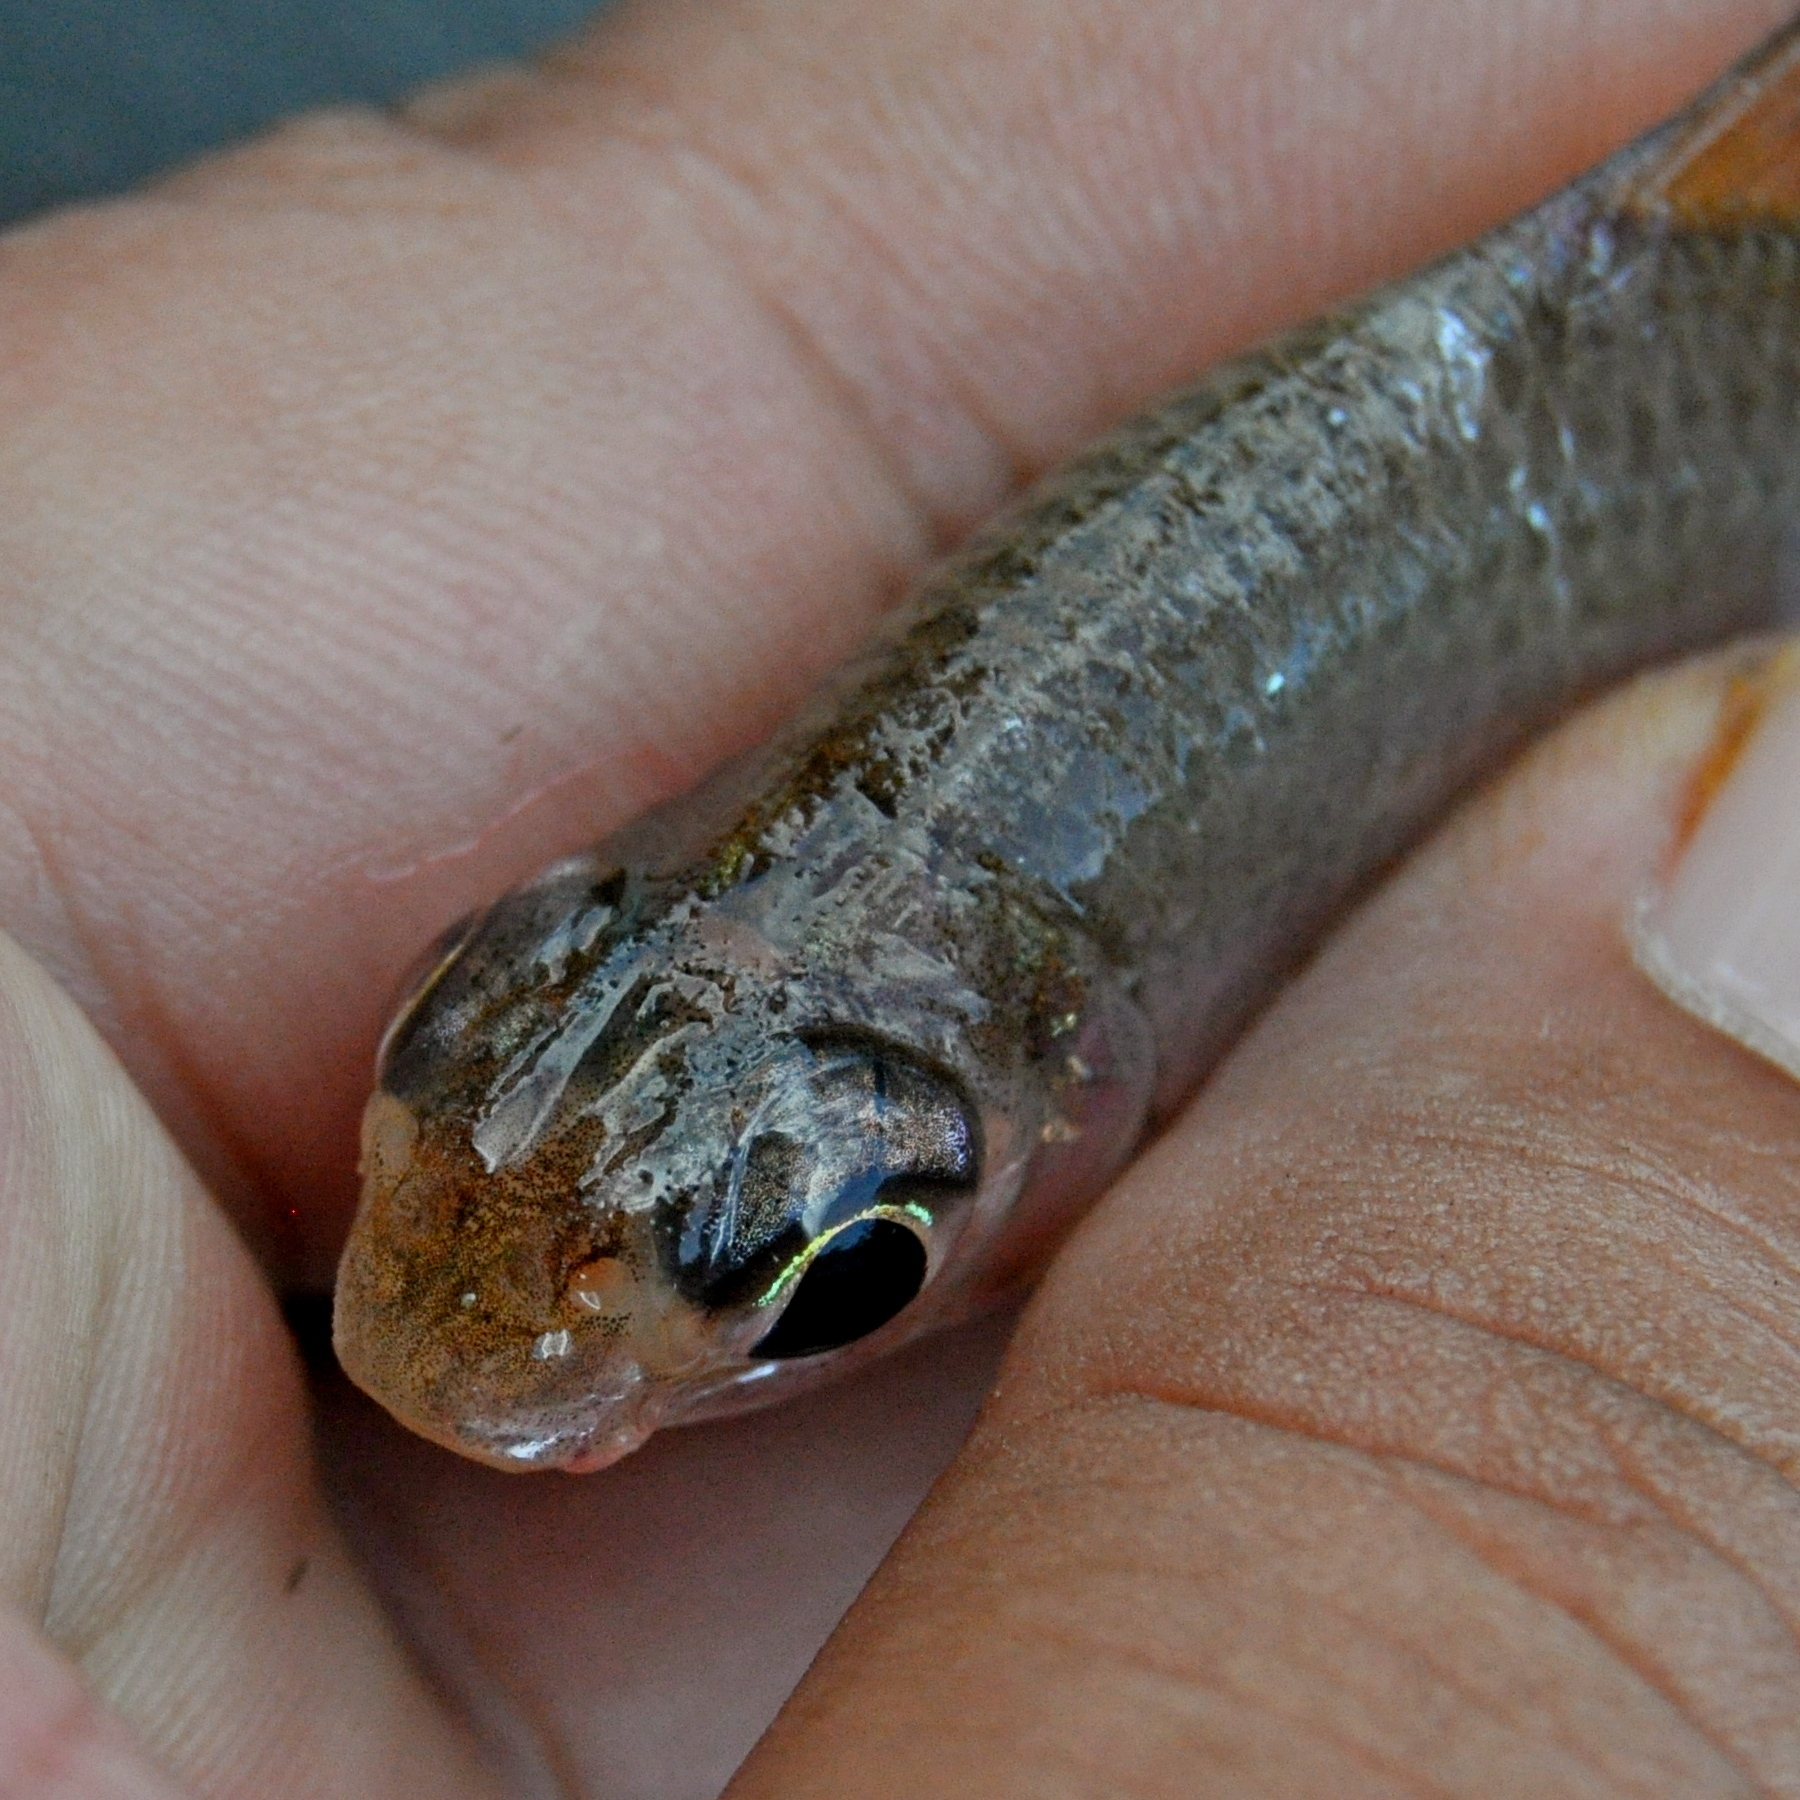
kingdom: Animalia
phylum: Chordata
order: Cypriniformes
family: Cyprinidae
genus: Cyclocheilichthys
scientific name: Cyclocheilichthys heteronema
